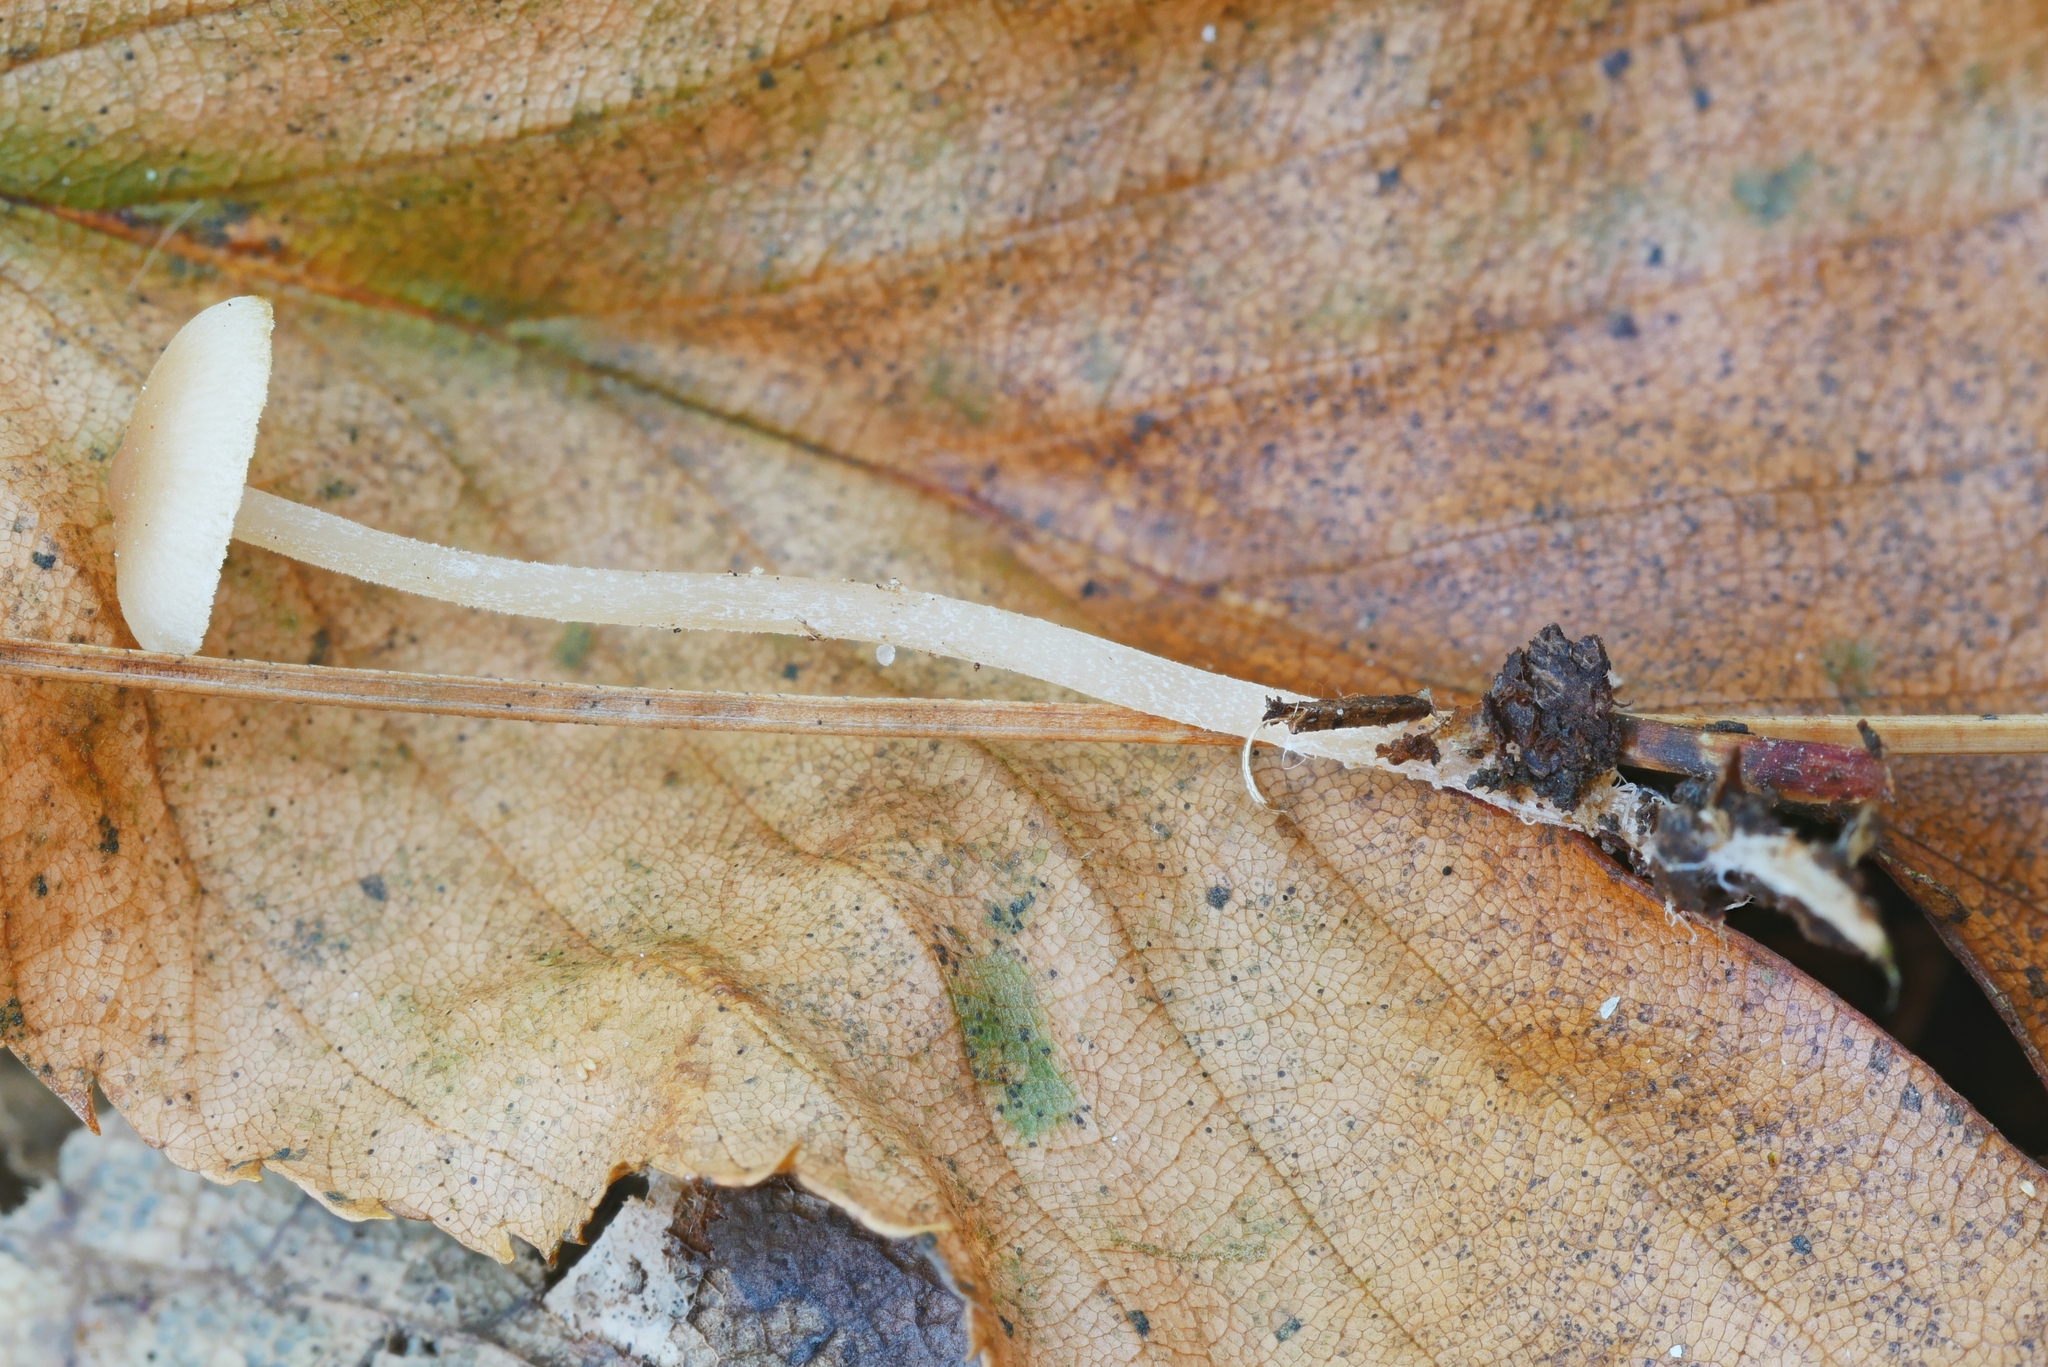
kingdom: Fungi
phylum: Basidiomycota
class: Agaricomycetes
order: Agaricales
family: Marasmiaceae
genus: Baeospora
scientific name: Baeospora myosura
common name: Conifercone cap
